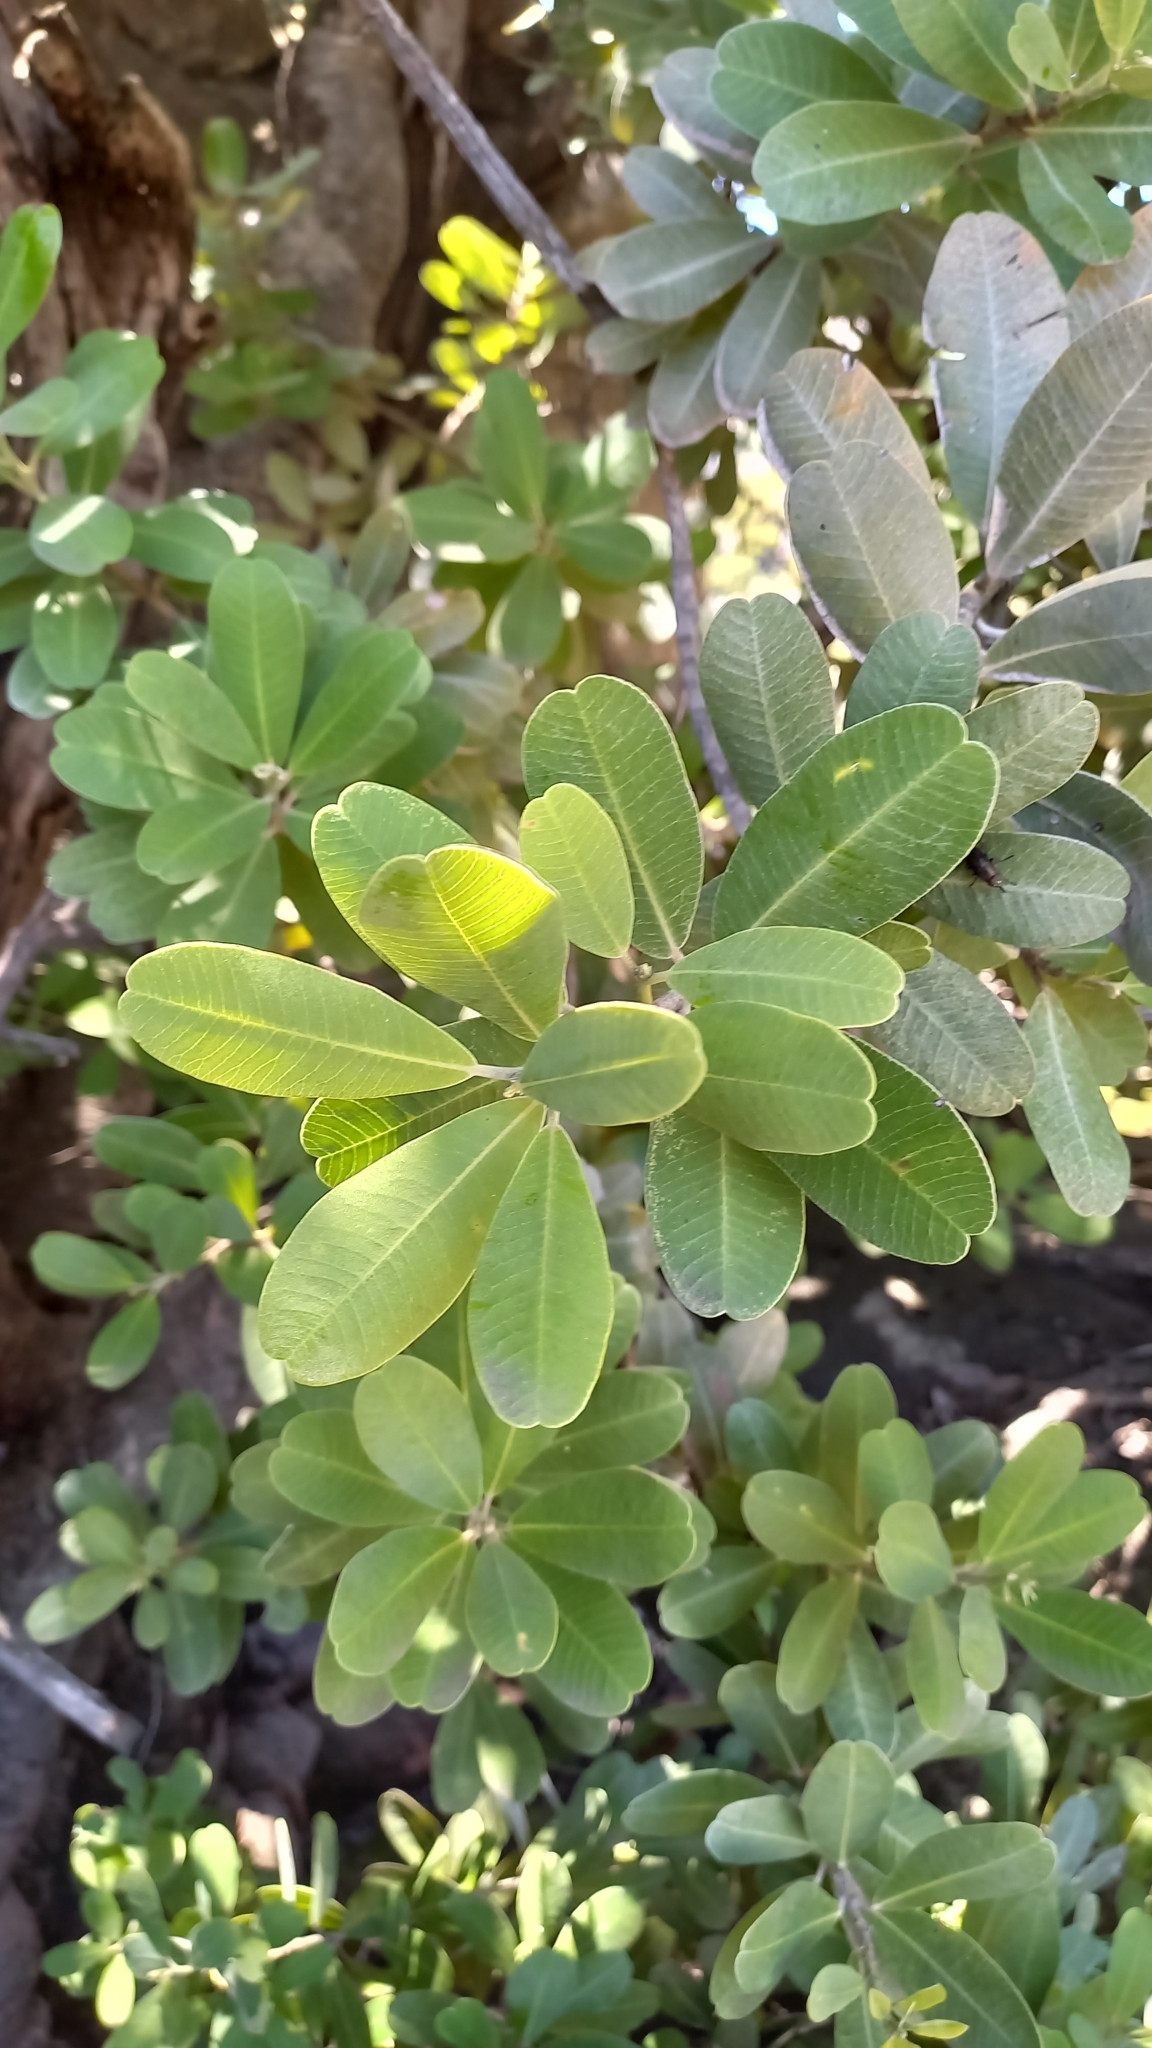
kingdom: Plantae
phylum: Tracheophyta
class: Magnoliopsida
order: Sapindales
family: Anacardiaceae
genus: Heeria
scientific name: Heeria argentea
